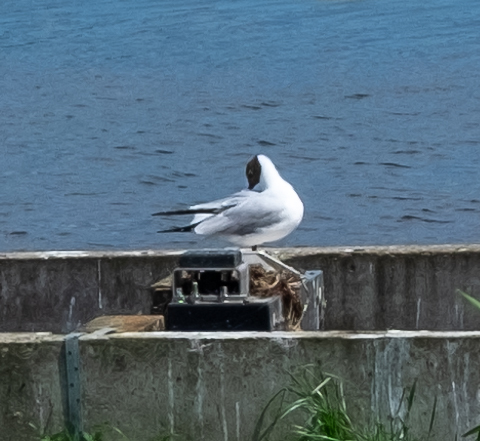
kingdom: Animalia
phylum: Chordata
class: Aves
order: Charadriiformes
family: Laridae
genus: Chroicocephalus
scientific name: Chroicocephalus ridibundus
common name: Black-headed gull
